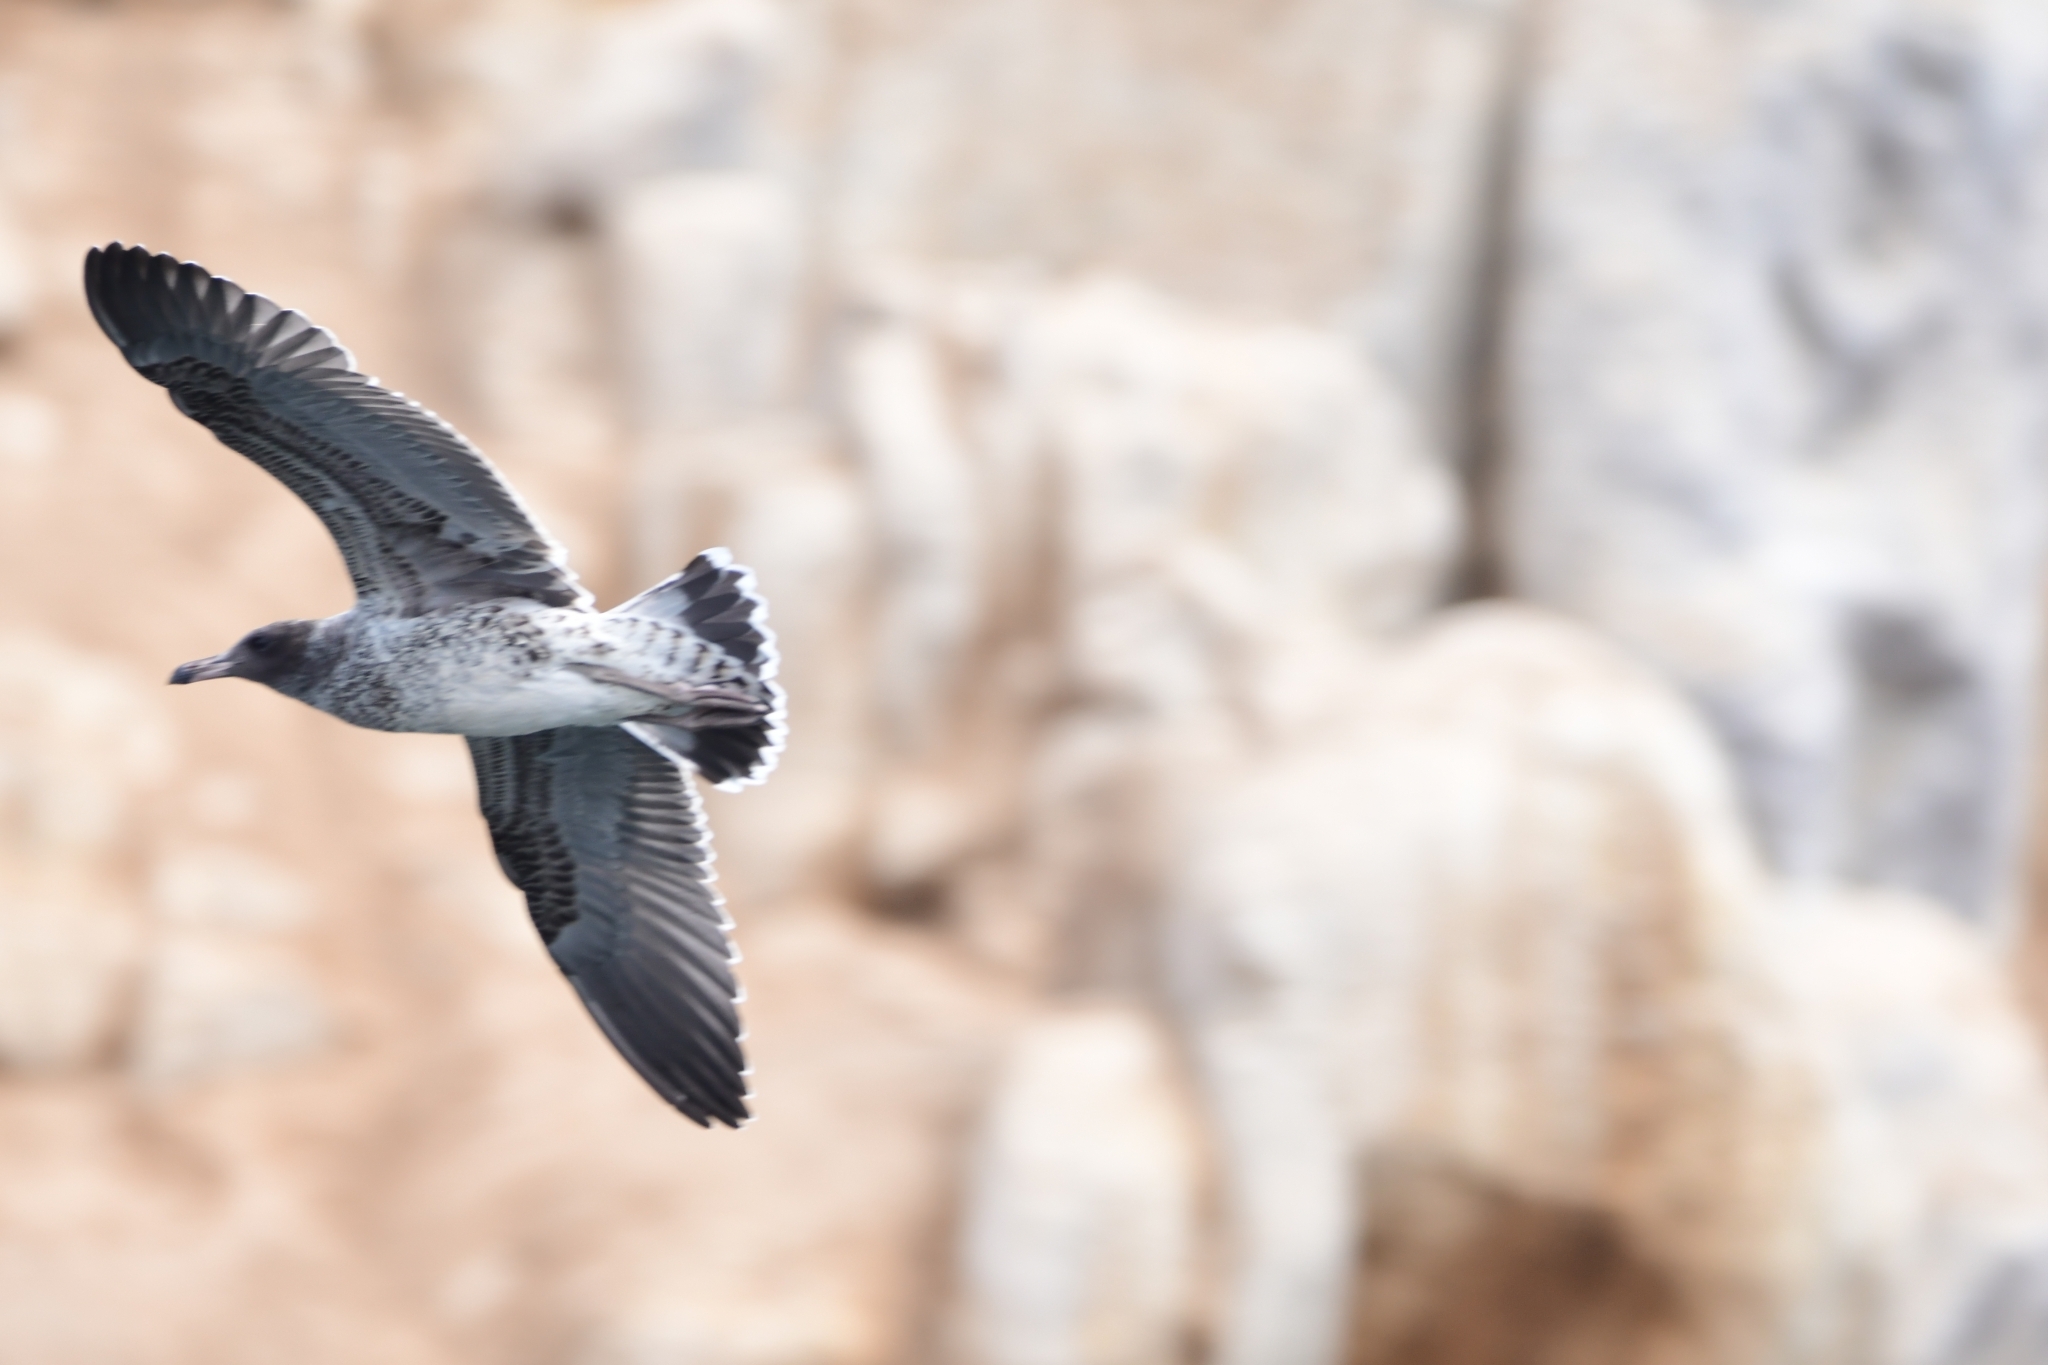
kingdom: Animalia
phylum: Chordata
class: Aves
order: Charadriiformes
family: Laridae
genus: Larus
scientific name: Larus belcheri
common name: Belcher's gull
